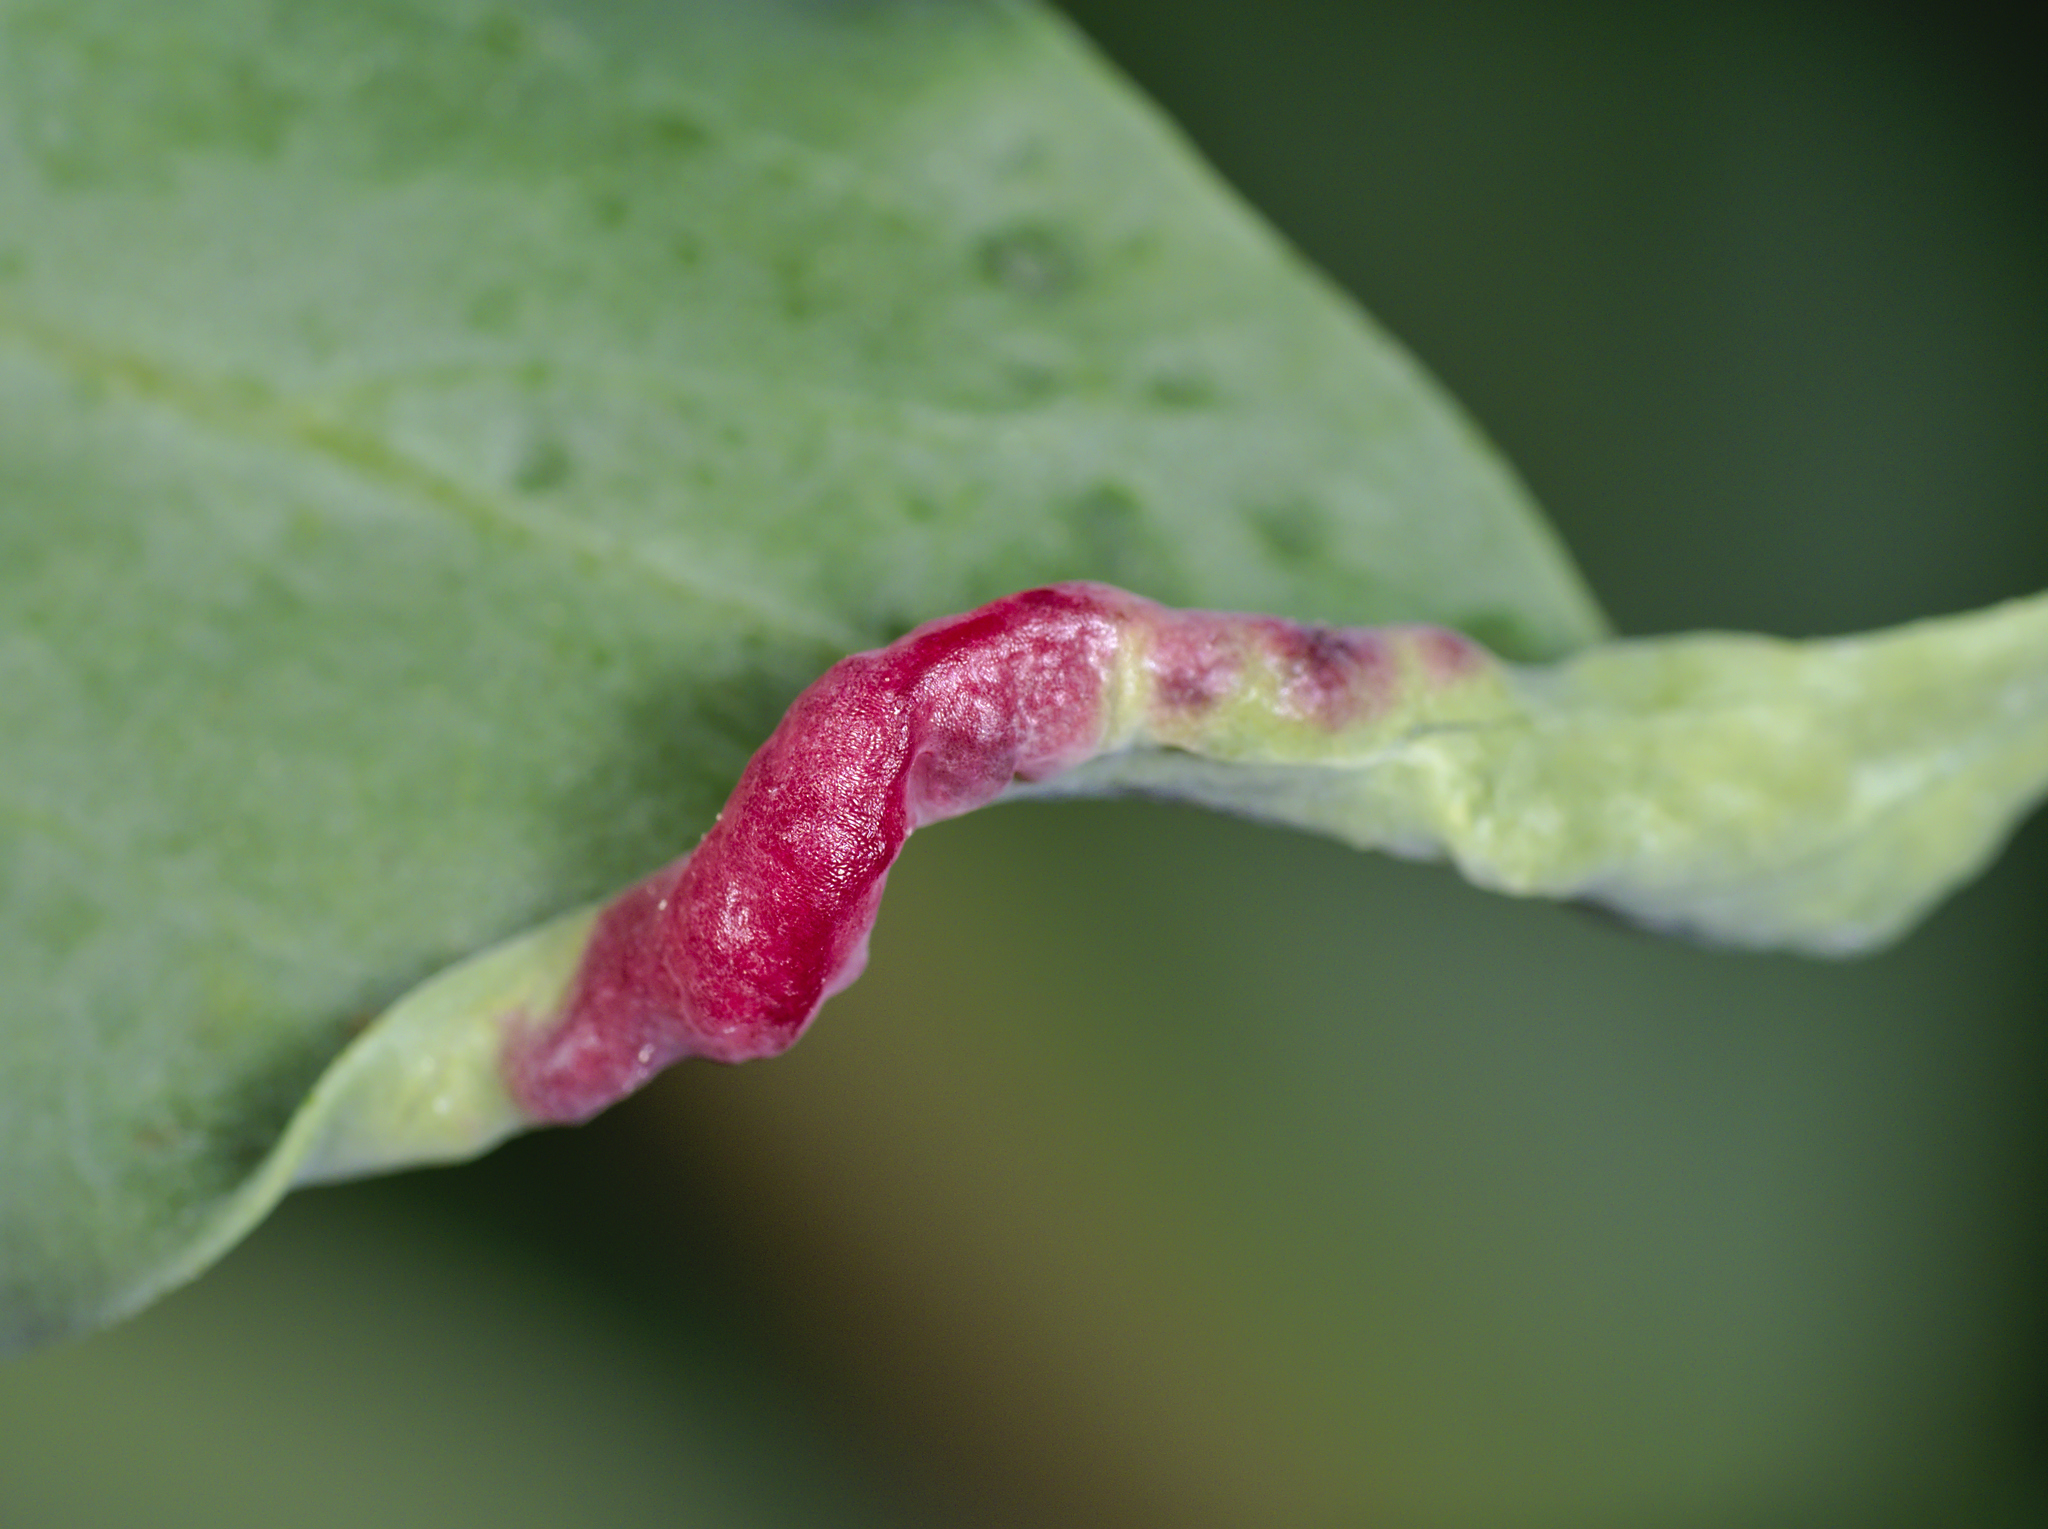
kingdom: Animalia
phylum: Arthropoda
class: Insecta
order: Hemiptera
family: Triozidae
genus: Trioza
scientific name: Trioza centranthi
